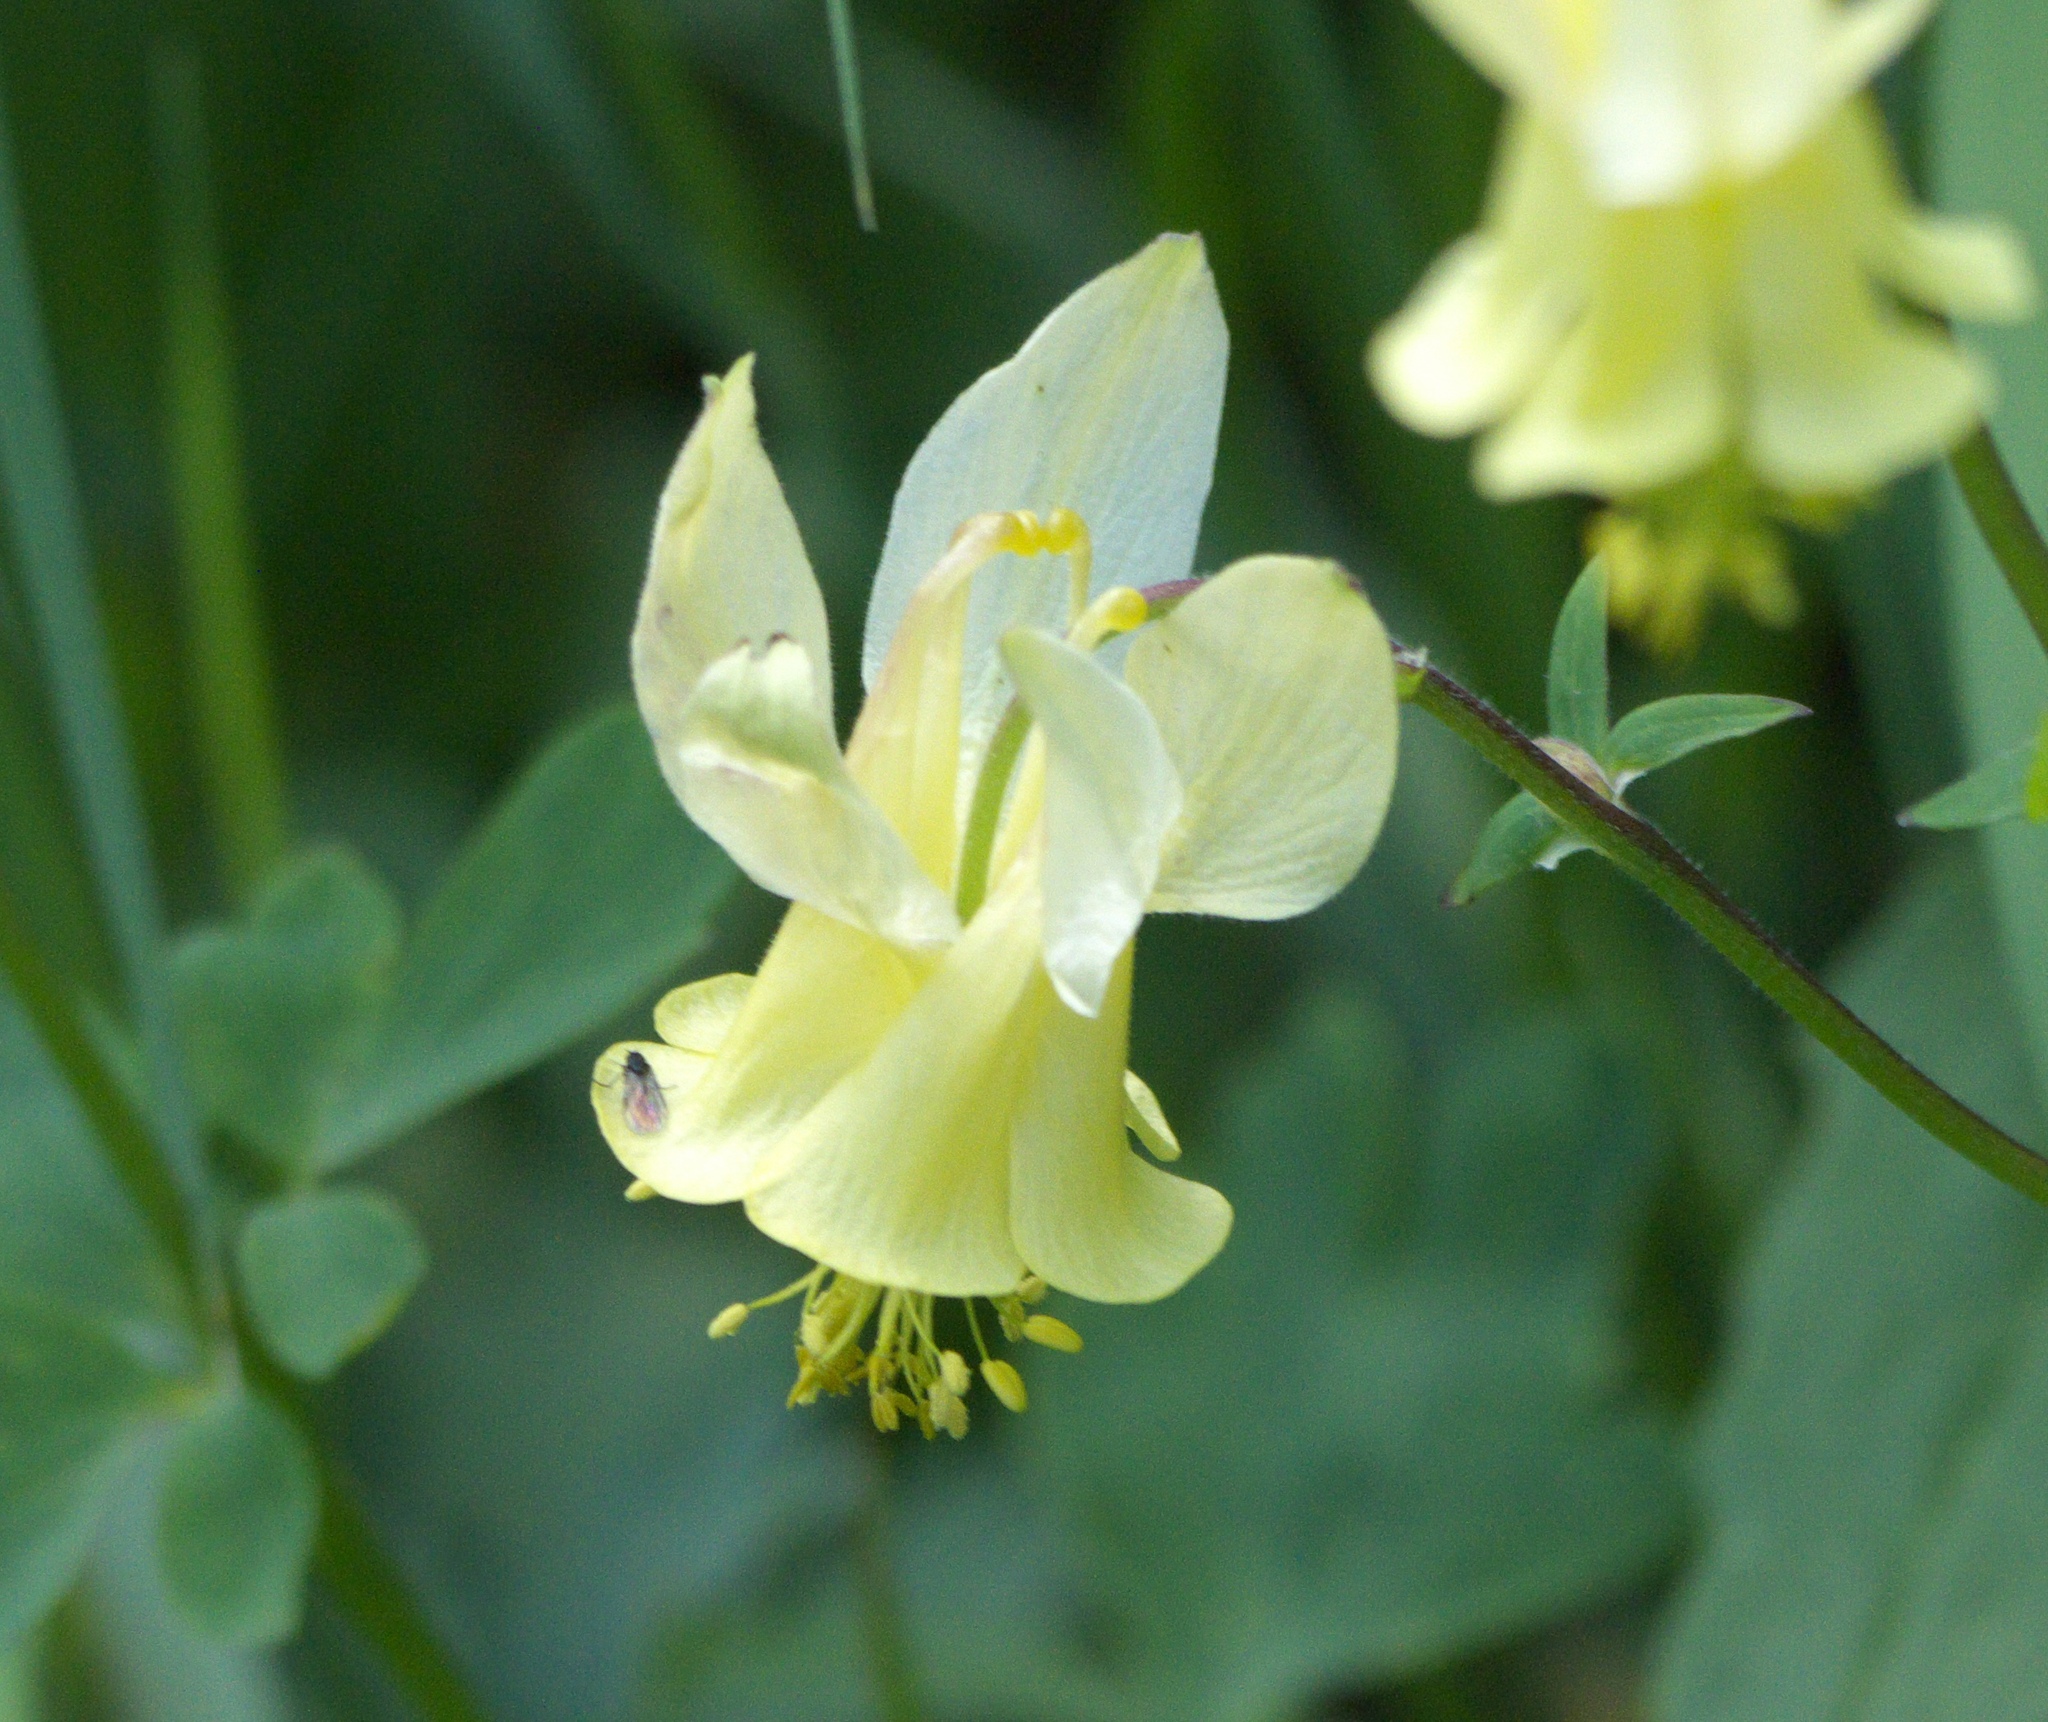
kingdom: Plantae
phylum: Tracheophyta
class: Magnoliopsida
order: Ranunculales
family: Ranunculaceae
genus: Aquilegia
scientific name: Aquilegia flavescens
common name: Yellow columbine
